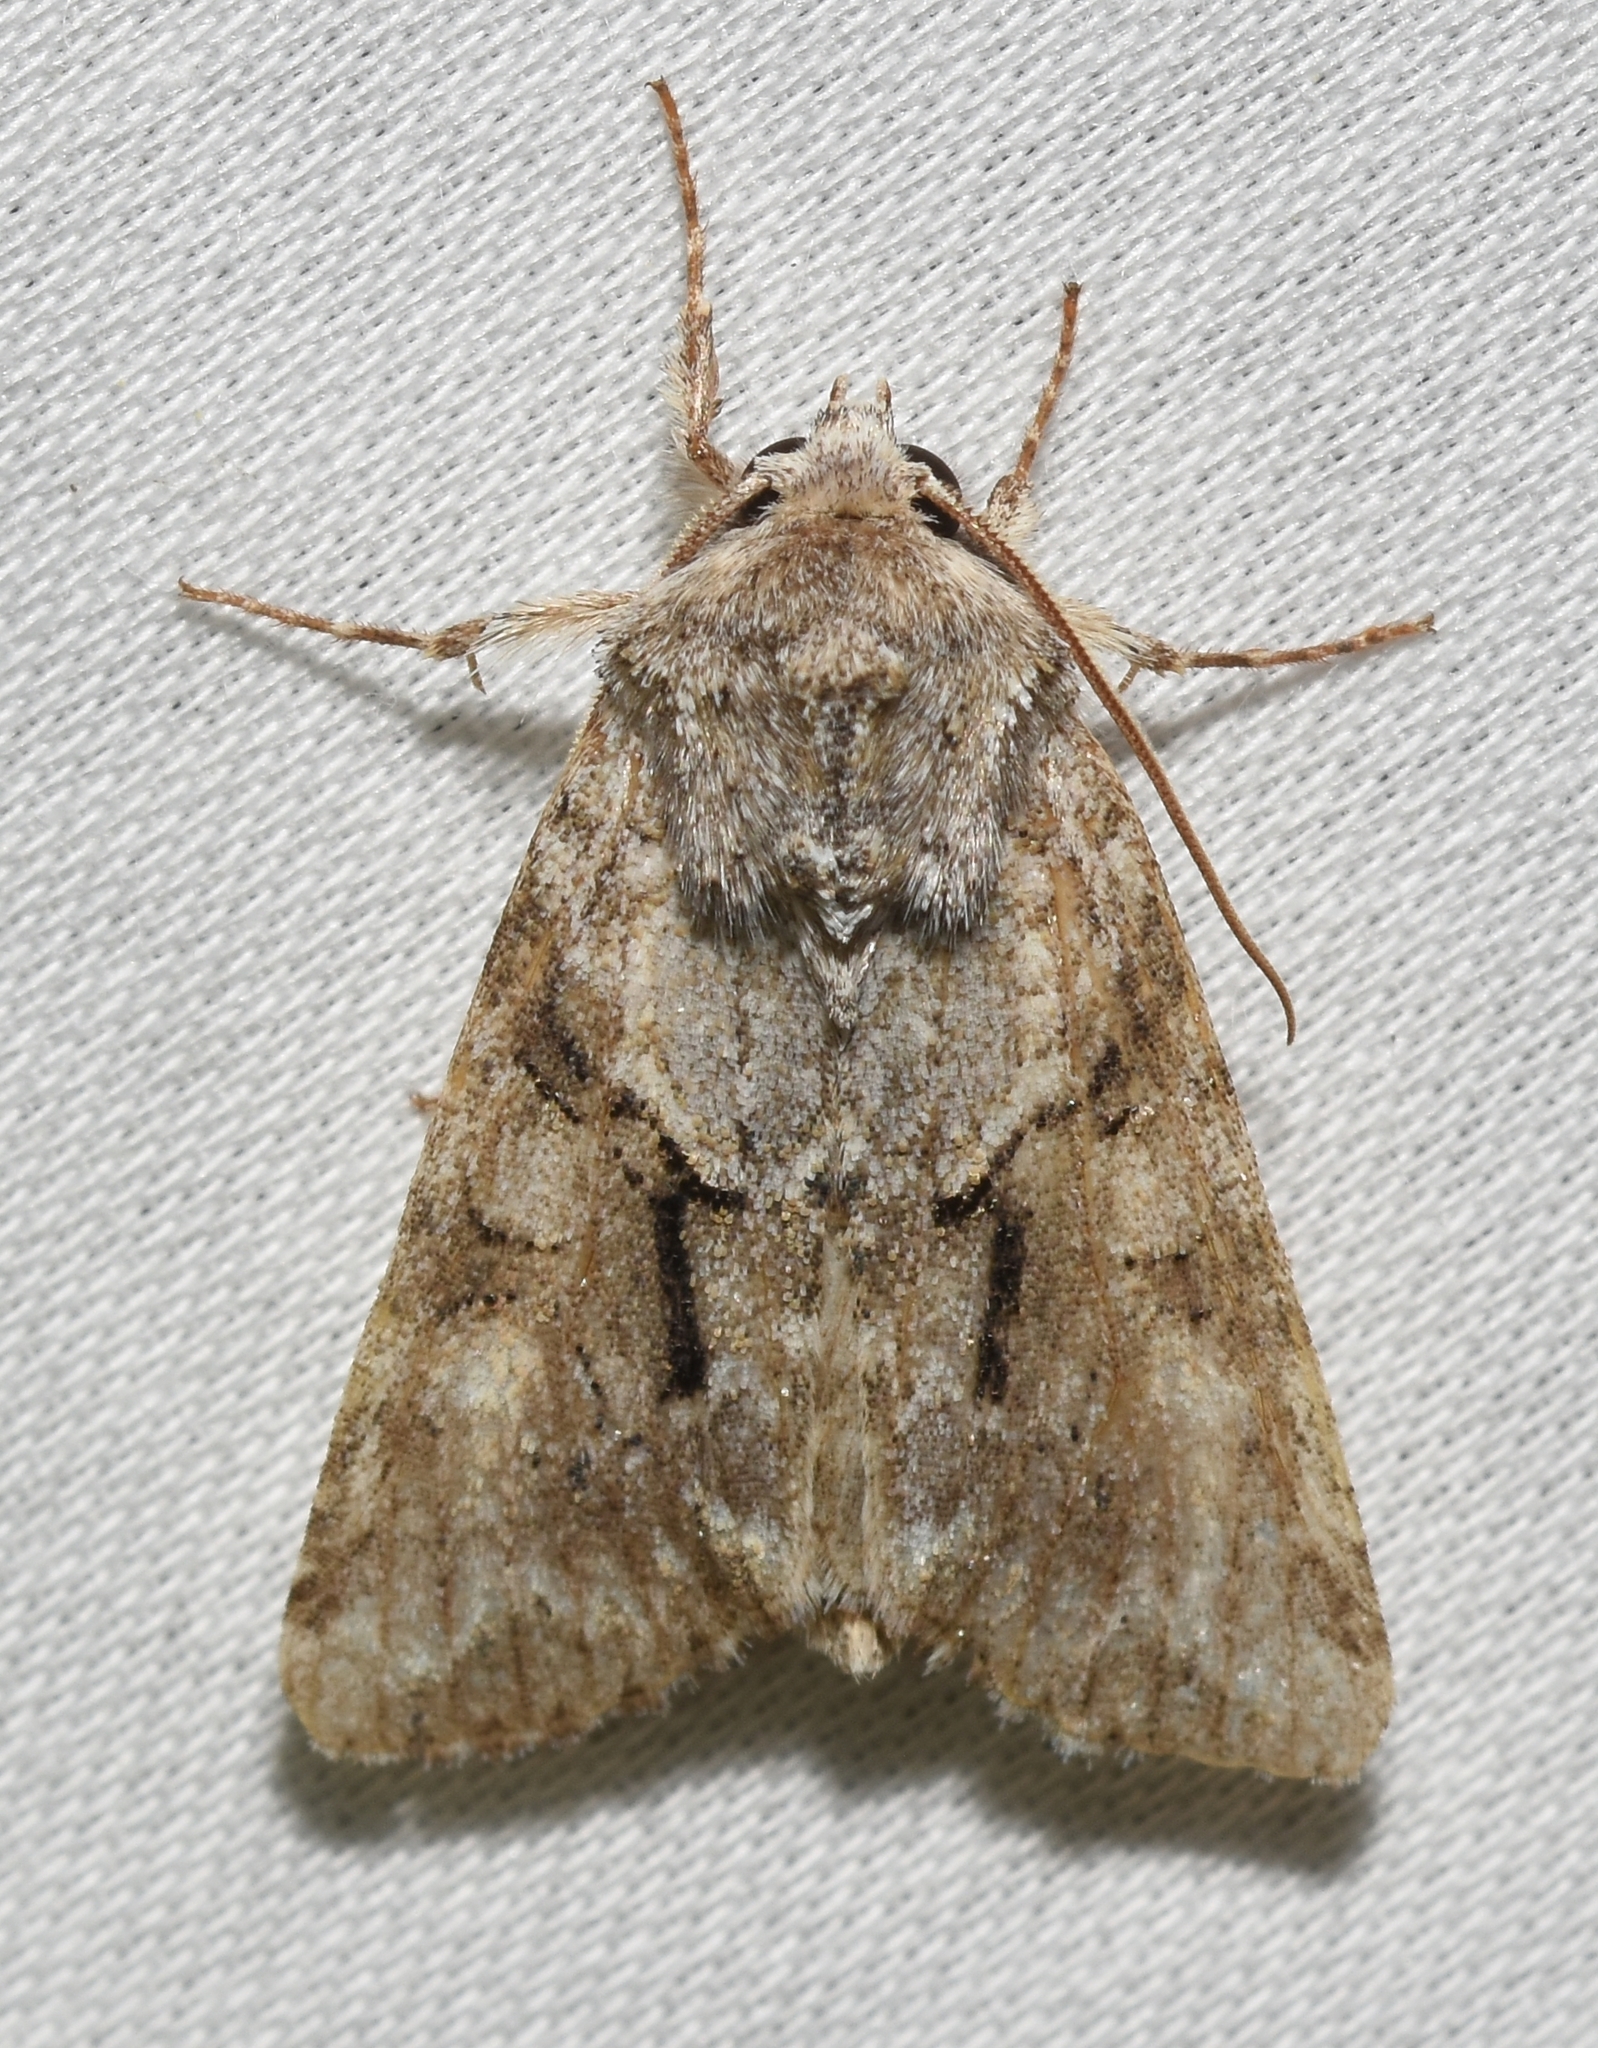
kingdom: Animalia
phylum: Arthropoda
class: Insecta
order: Lepidoptera
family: Noctuidae
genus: Achatia
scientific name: Achatia distincta
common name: Distinct quaker
